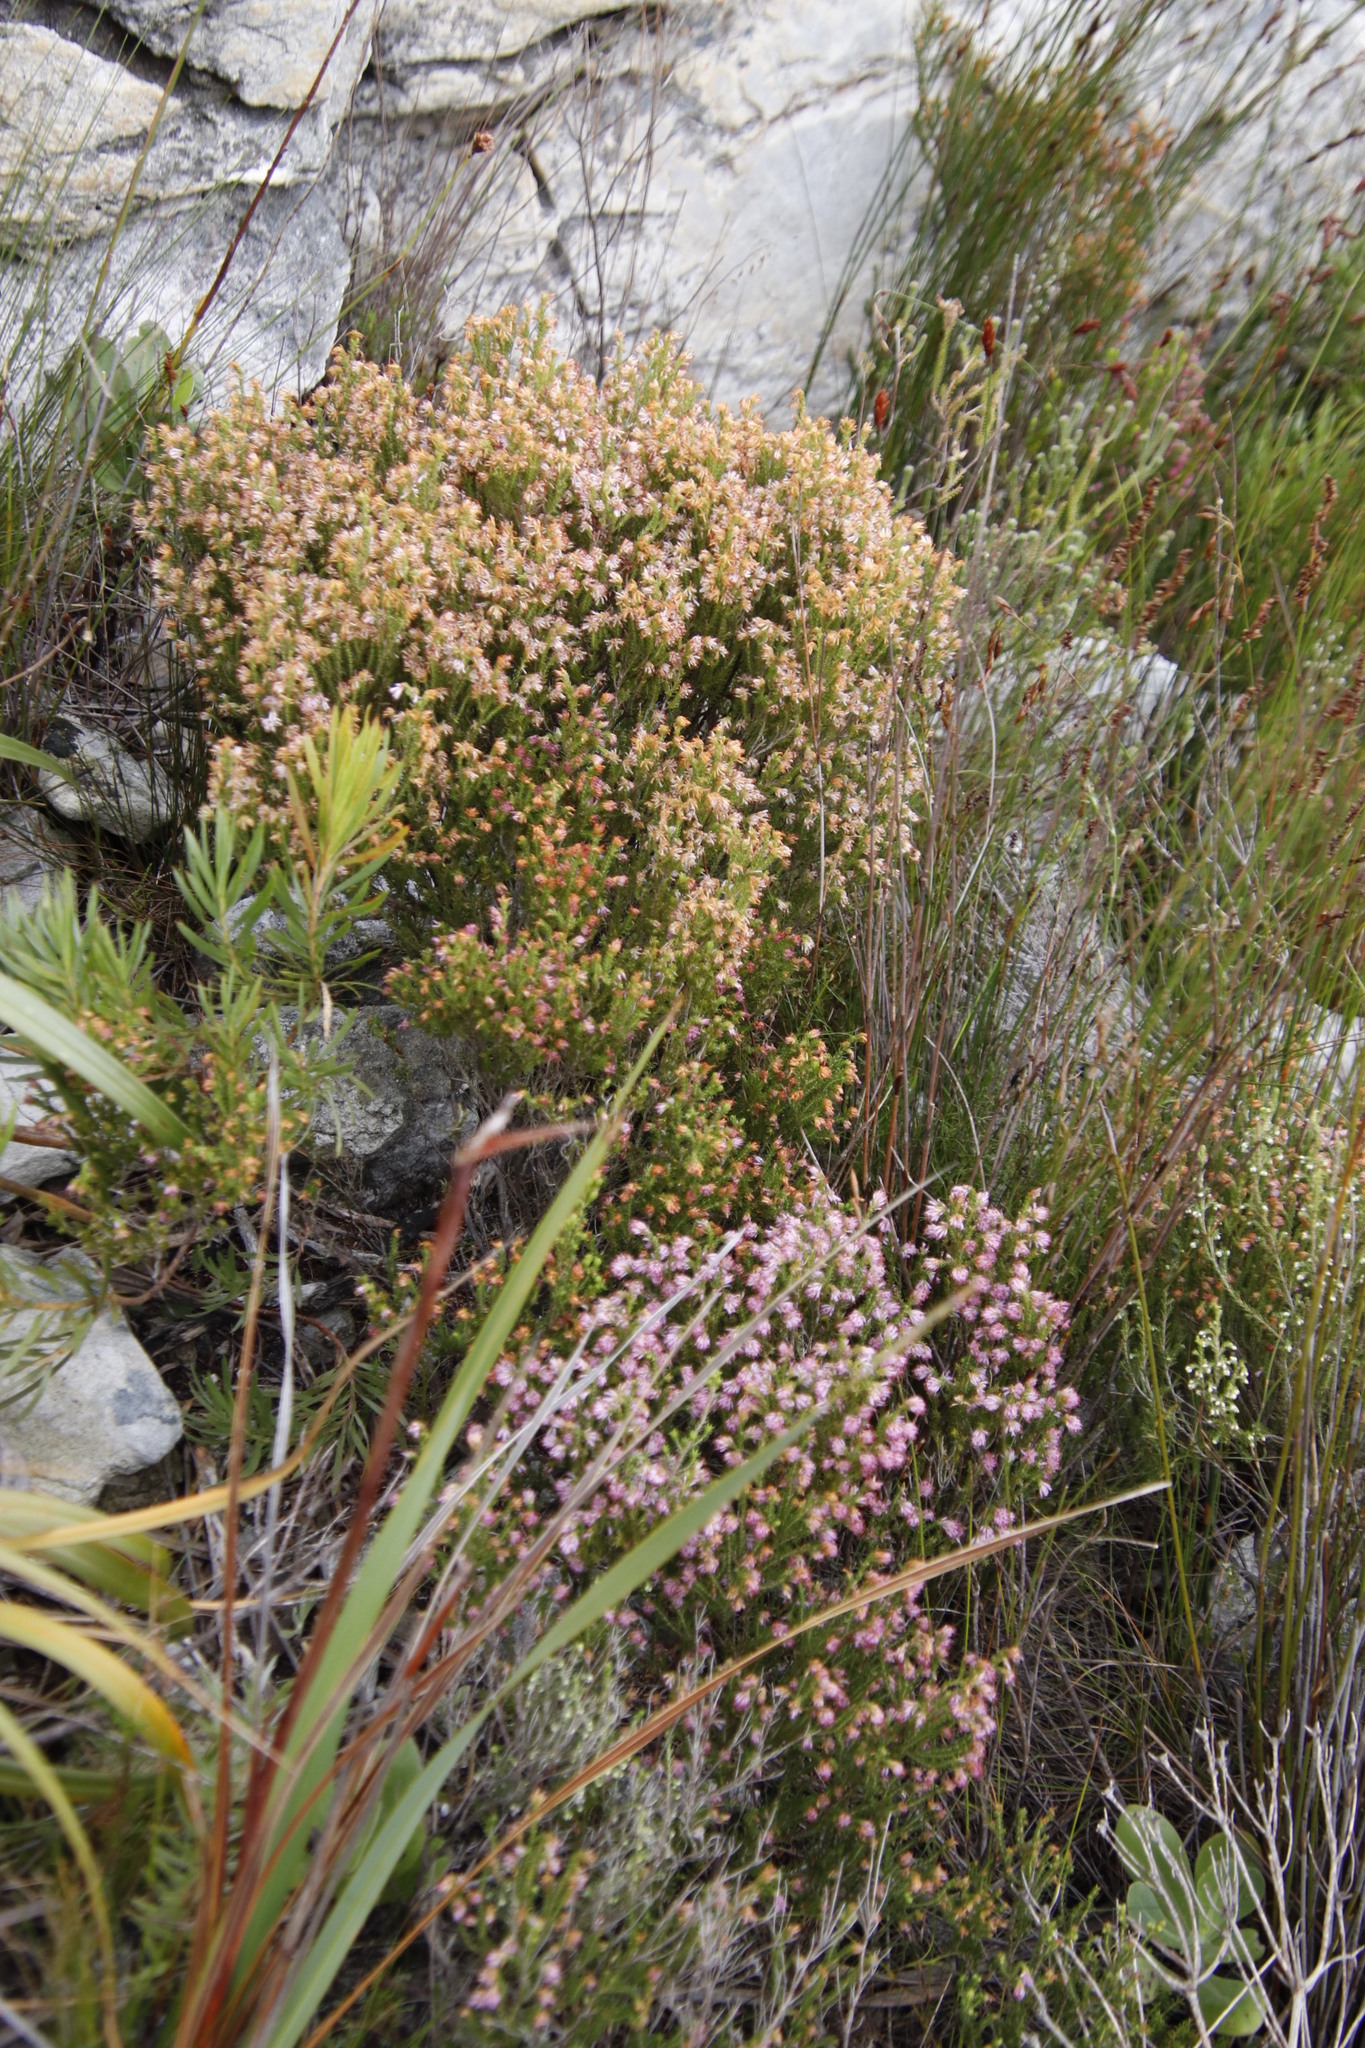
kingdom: Plantae
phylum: Tracheophyta
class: Magnoliopsida
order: Ericales
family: Ericaceae
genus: Erica
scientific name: Erica labialis
